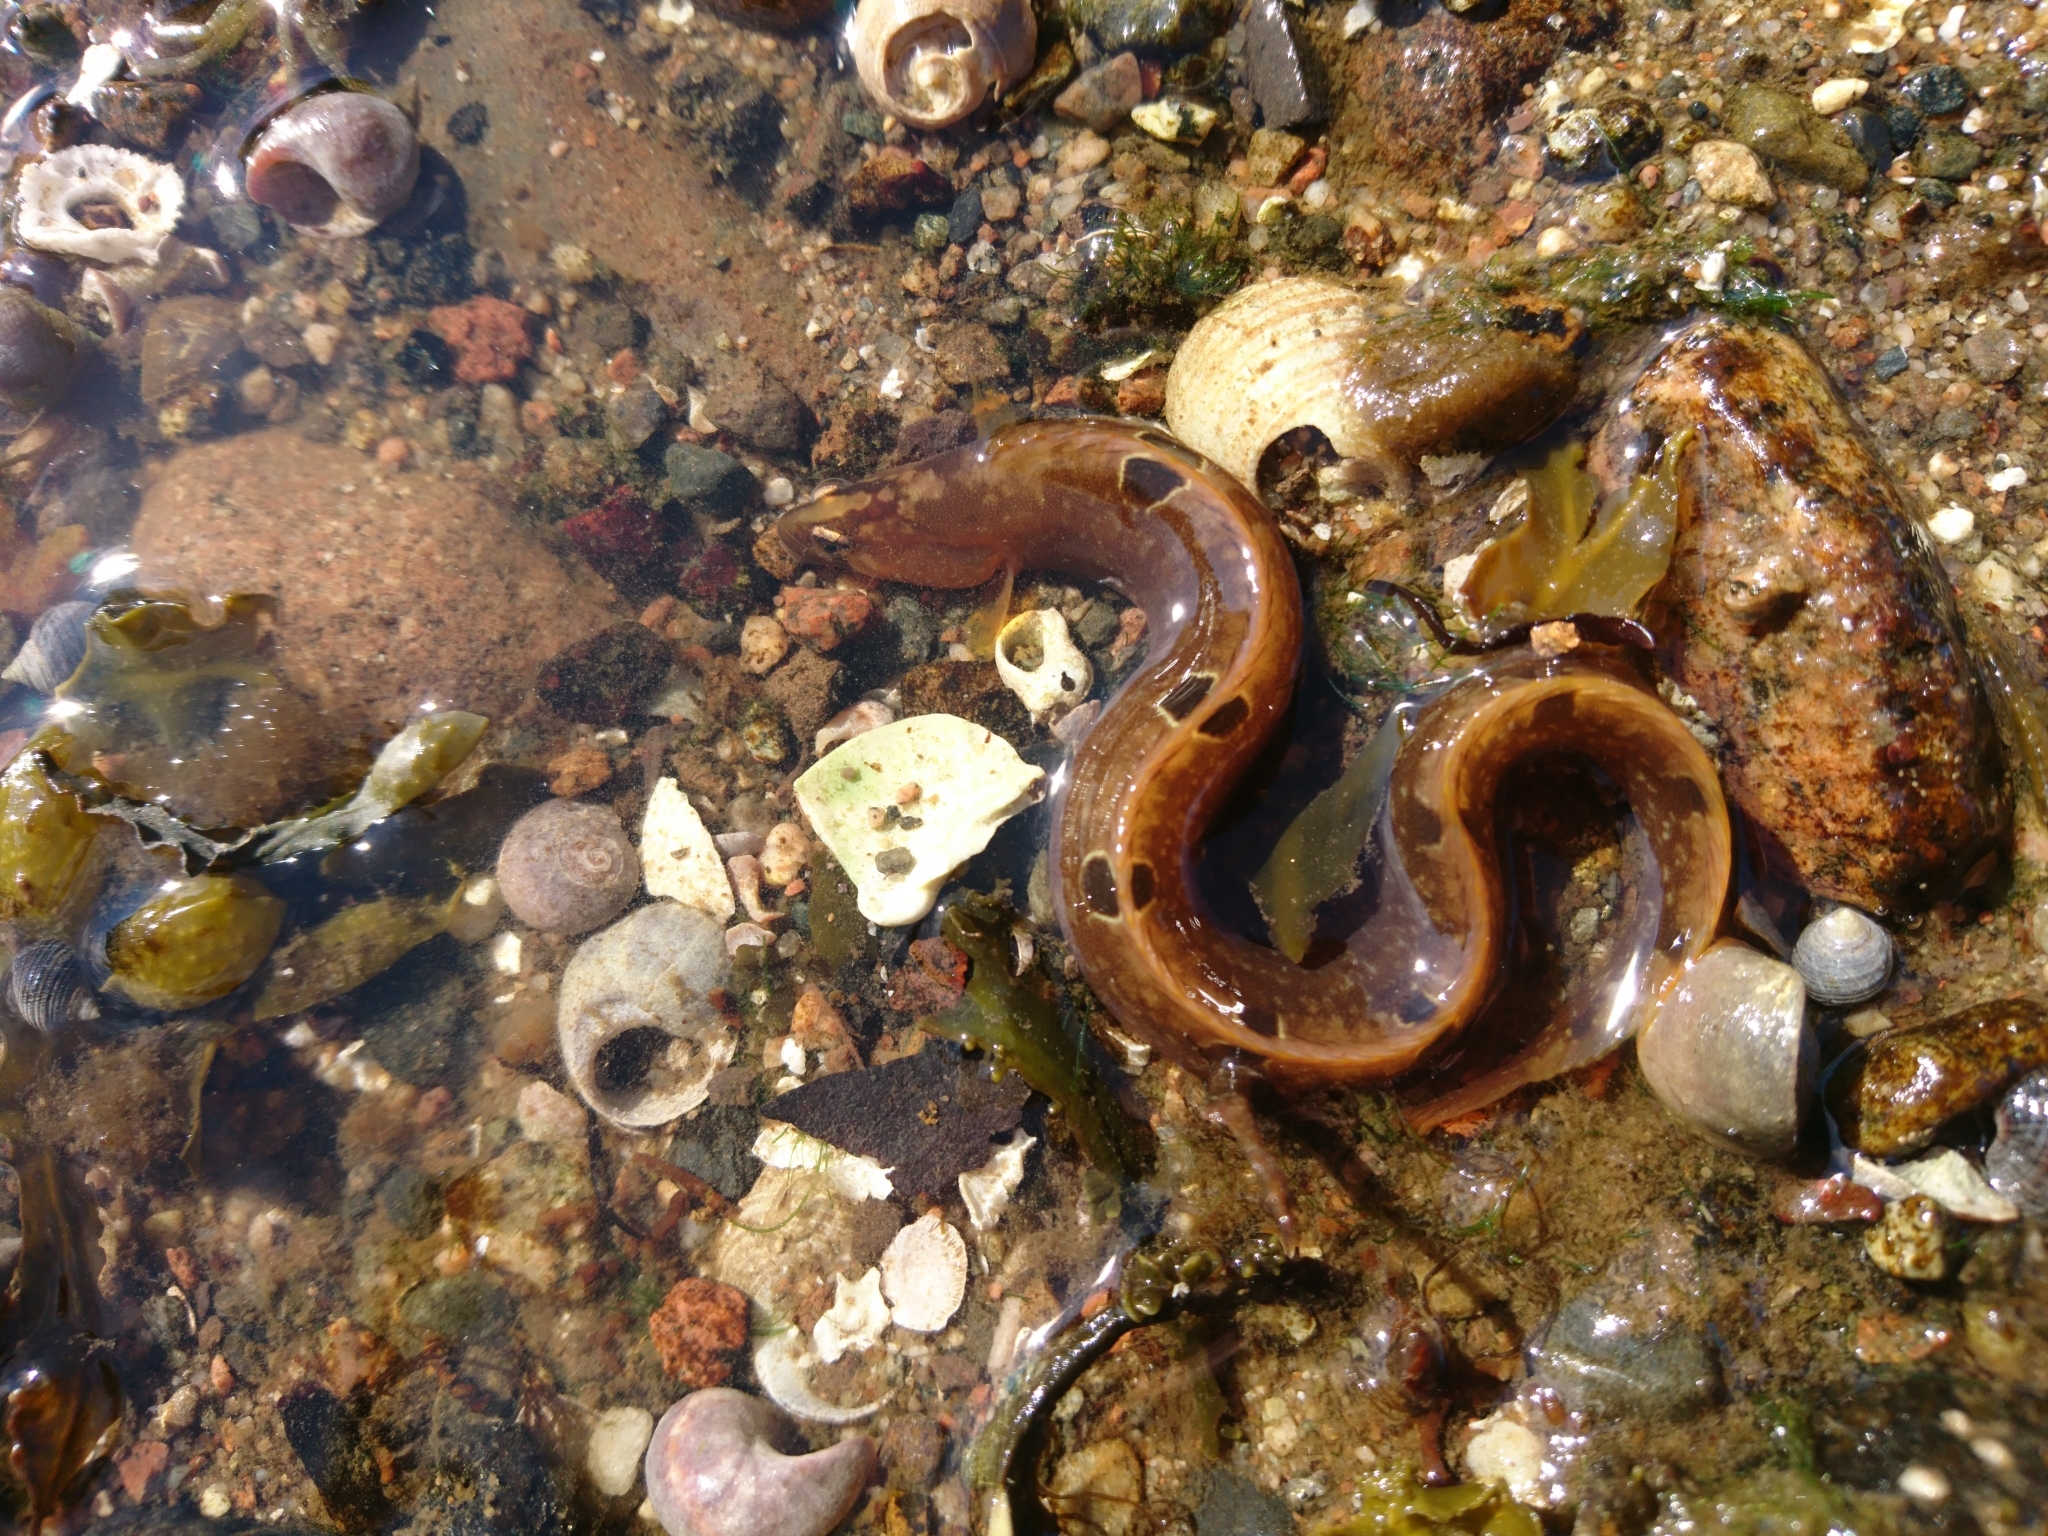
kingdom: Animalia
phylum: Chordata
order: Perciformes
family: Pholidae
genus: Pholis
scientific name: Pholis gunnellus
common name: Butterfish
